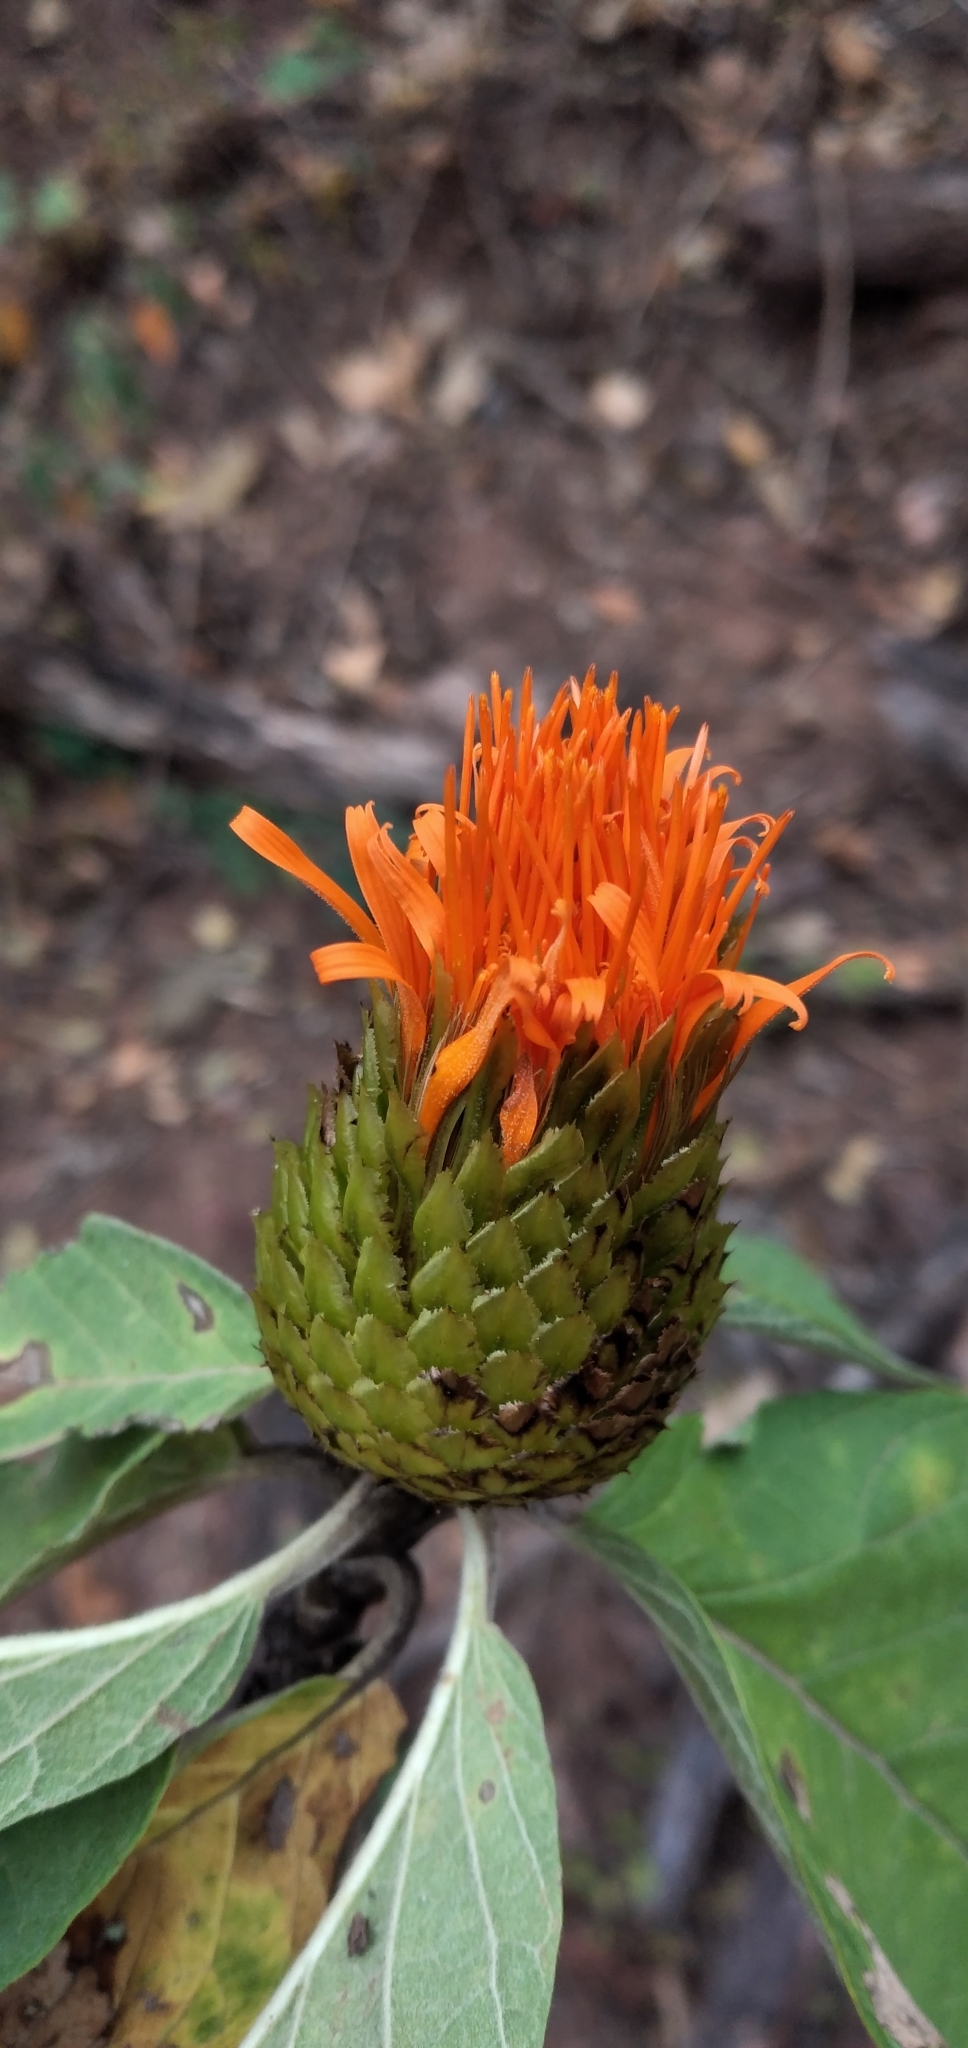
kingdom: Plantae
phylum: Tracheophyta
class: Magnoliopsida
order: Asterales
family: Asteraceae
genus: Cnicothamnus
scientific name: Cnicothamnus lorentzii
